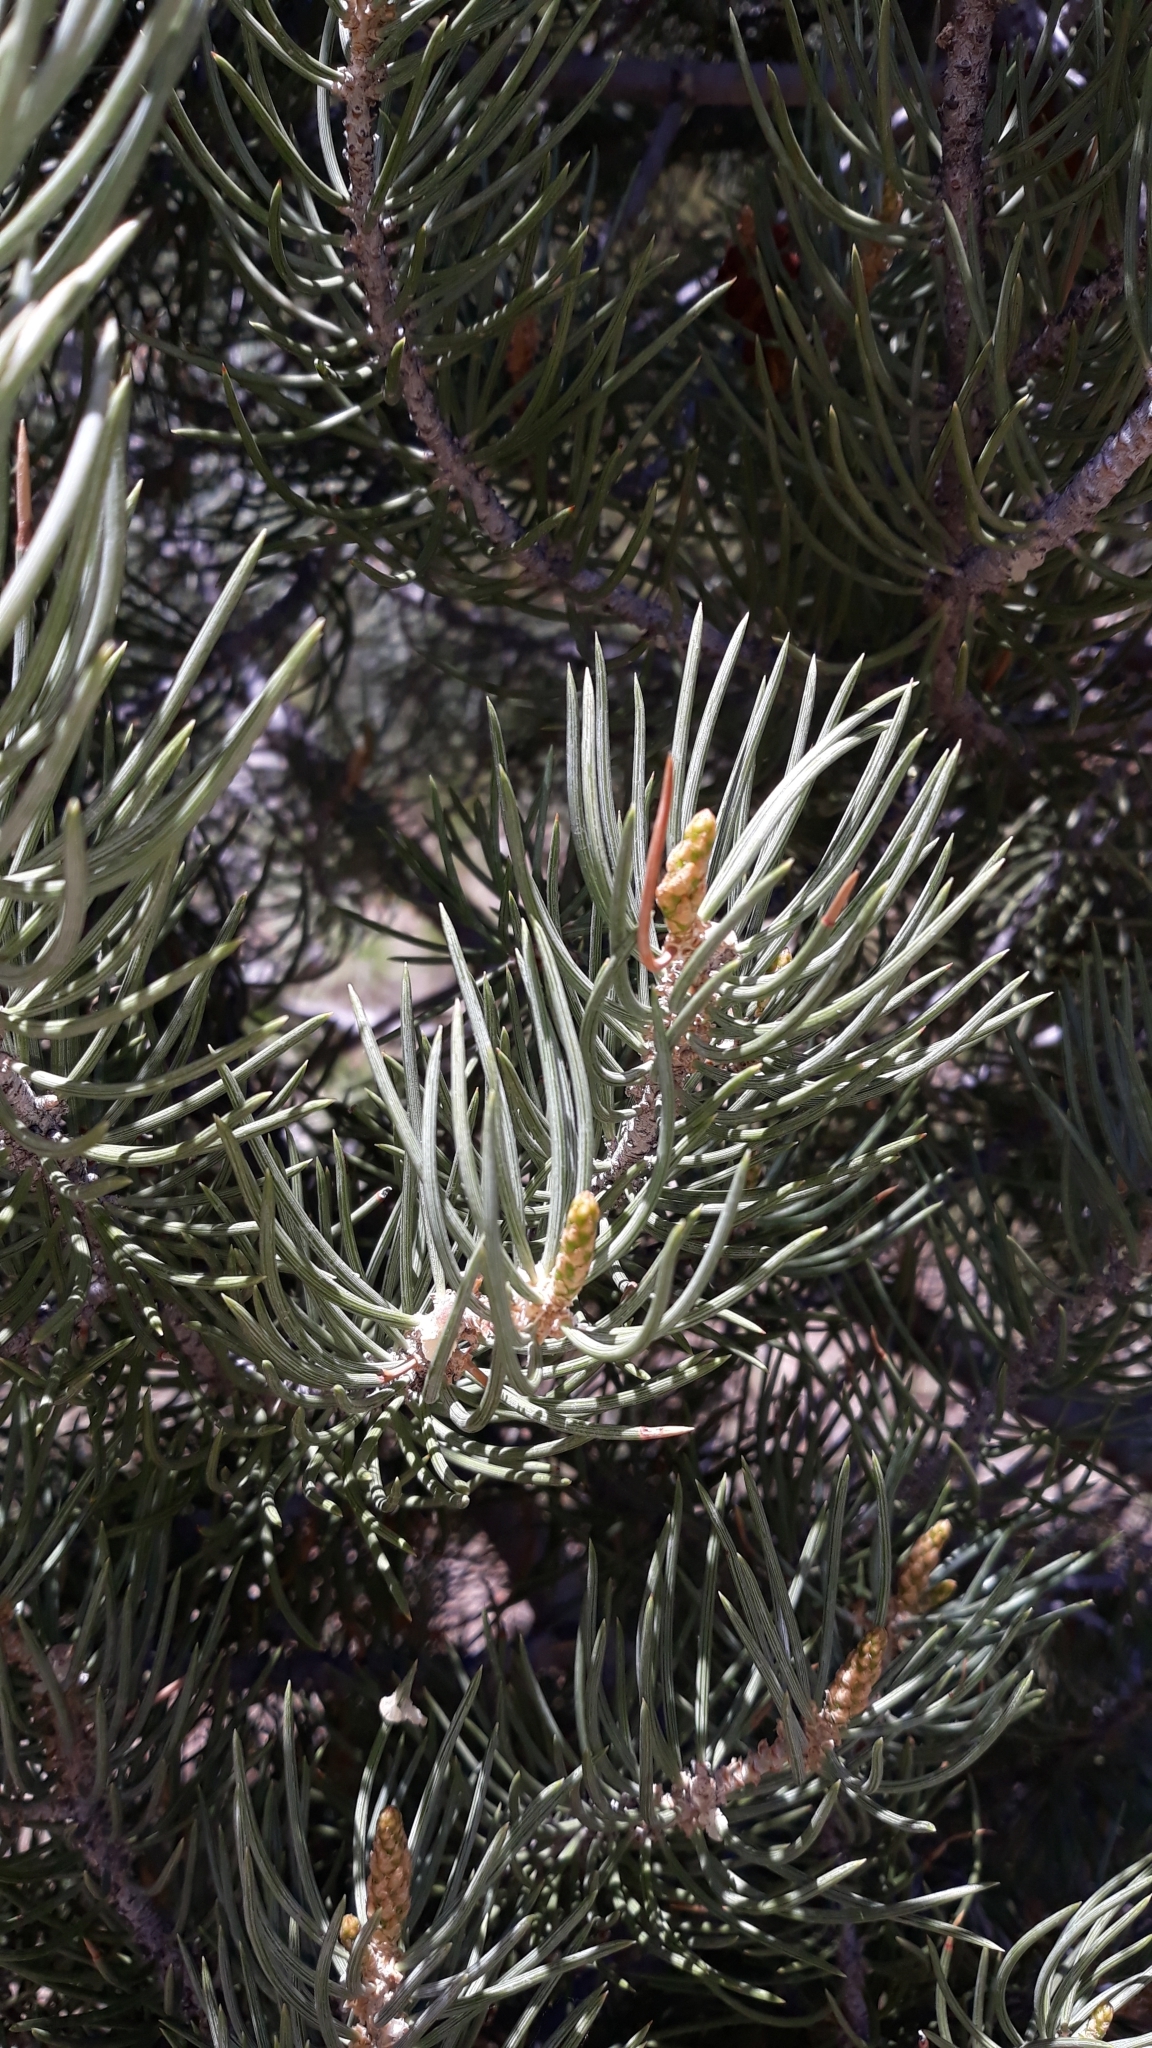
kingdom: Plantae
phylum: Tracheophyta
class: Pinopsida
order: Pinales
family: Pinaceae
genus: Pinus
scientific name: Pinus monophylla
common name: One-leaved nut pine
